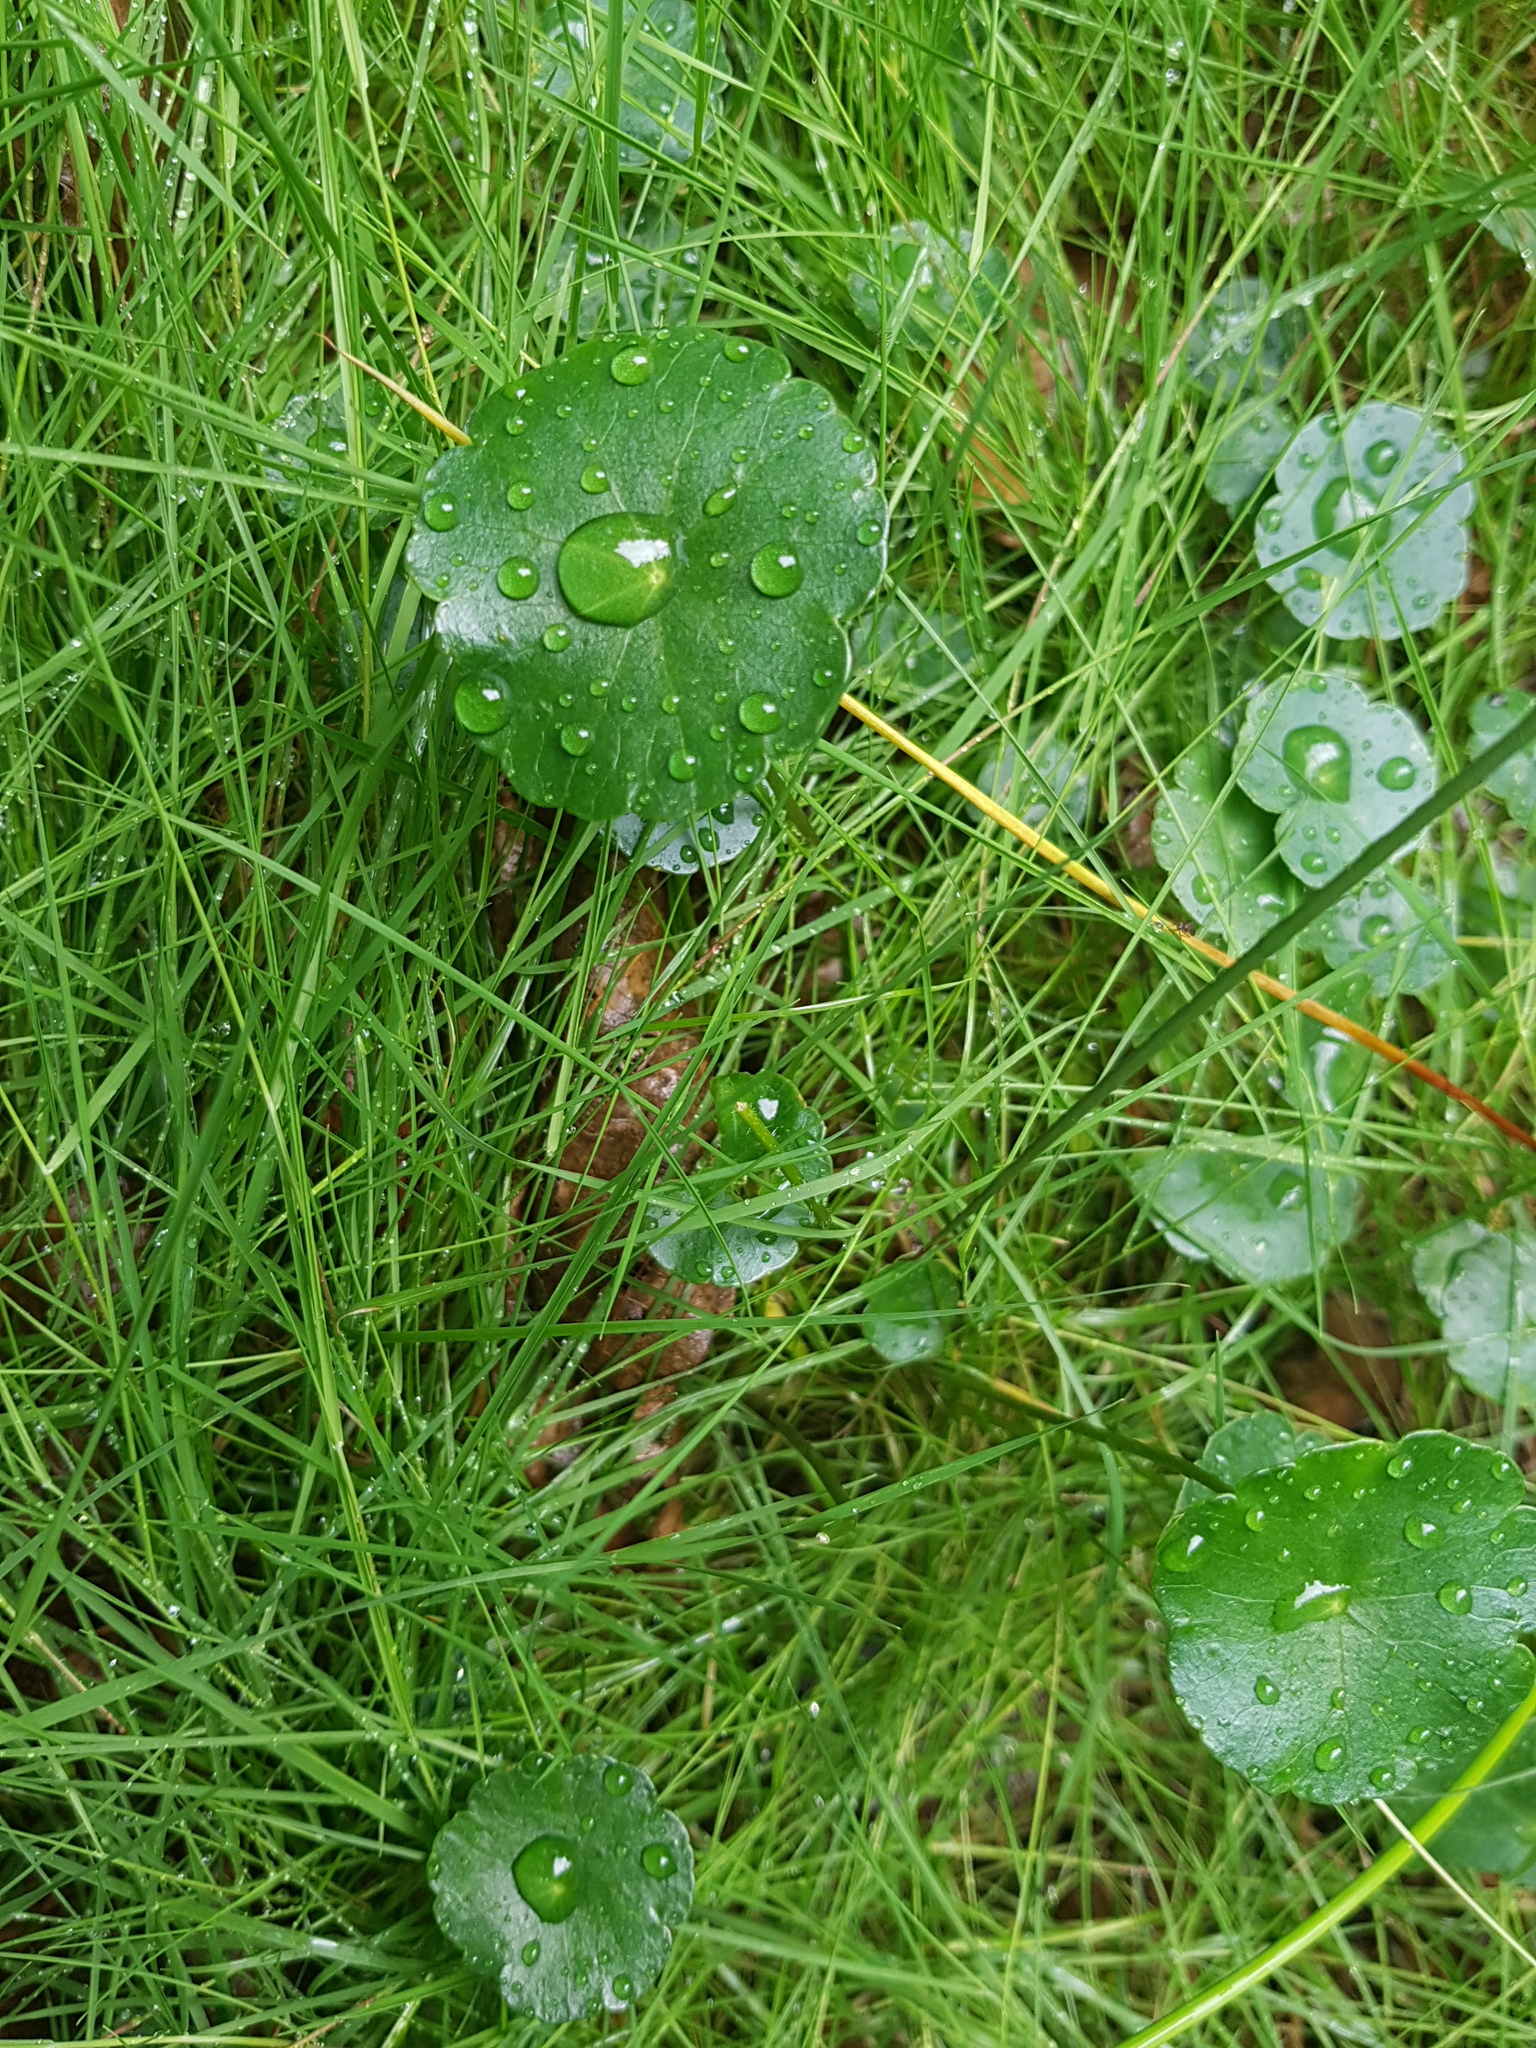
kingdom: Plantae
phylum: Tracheophyta
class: Magnoliopsida
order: Apiales
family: Araliaceae
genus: Hydrocotyle
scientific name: Hydrocotyle vulgaris
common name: Marsh pennywort
